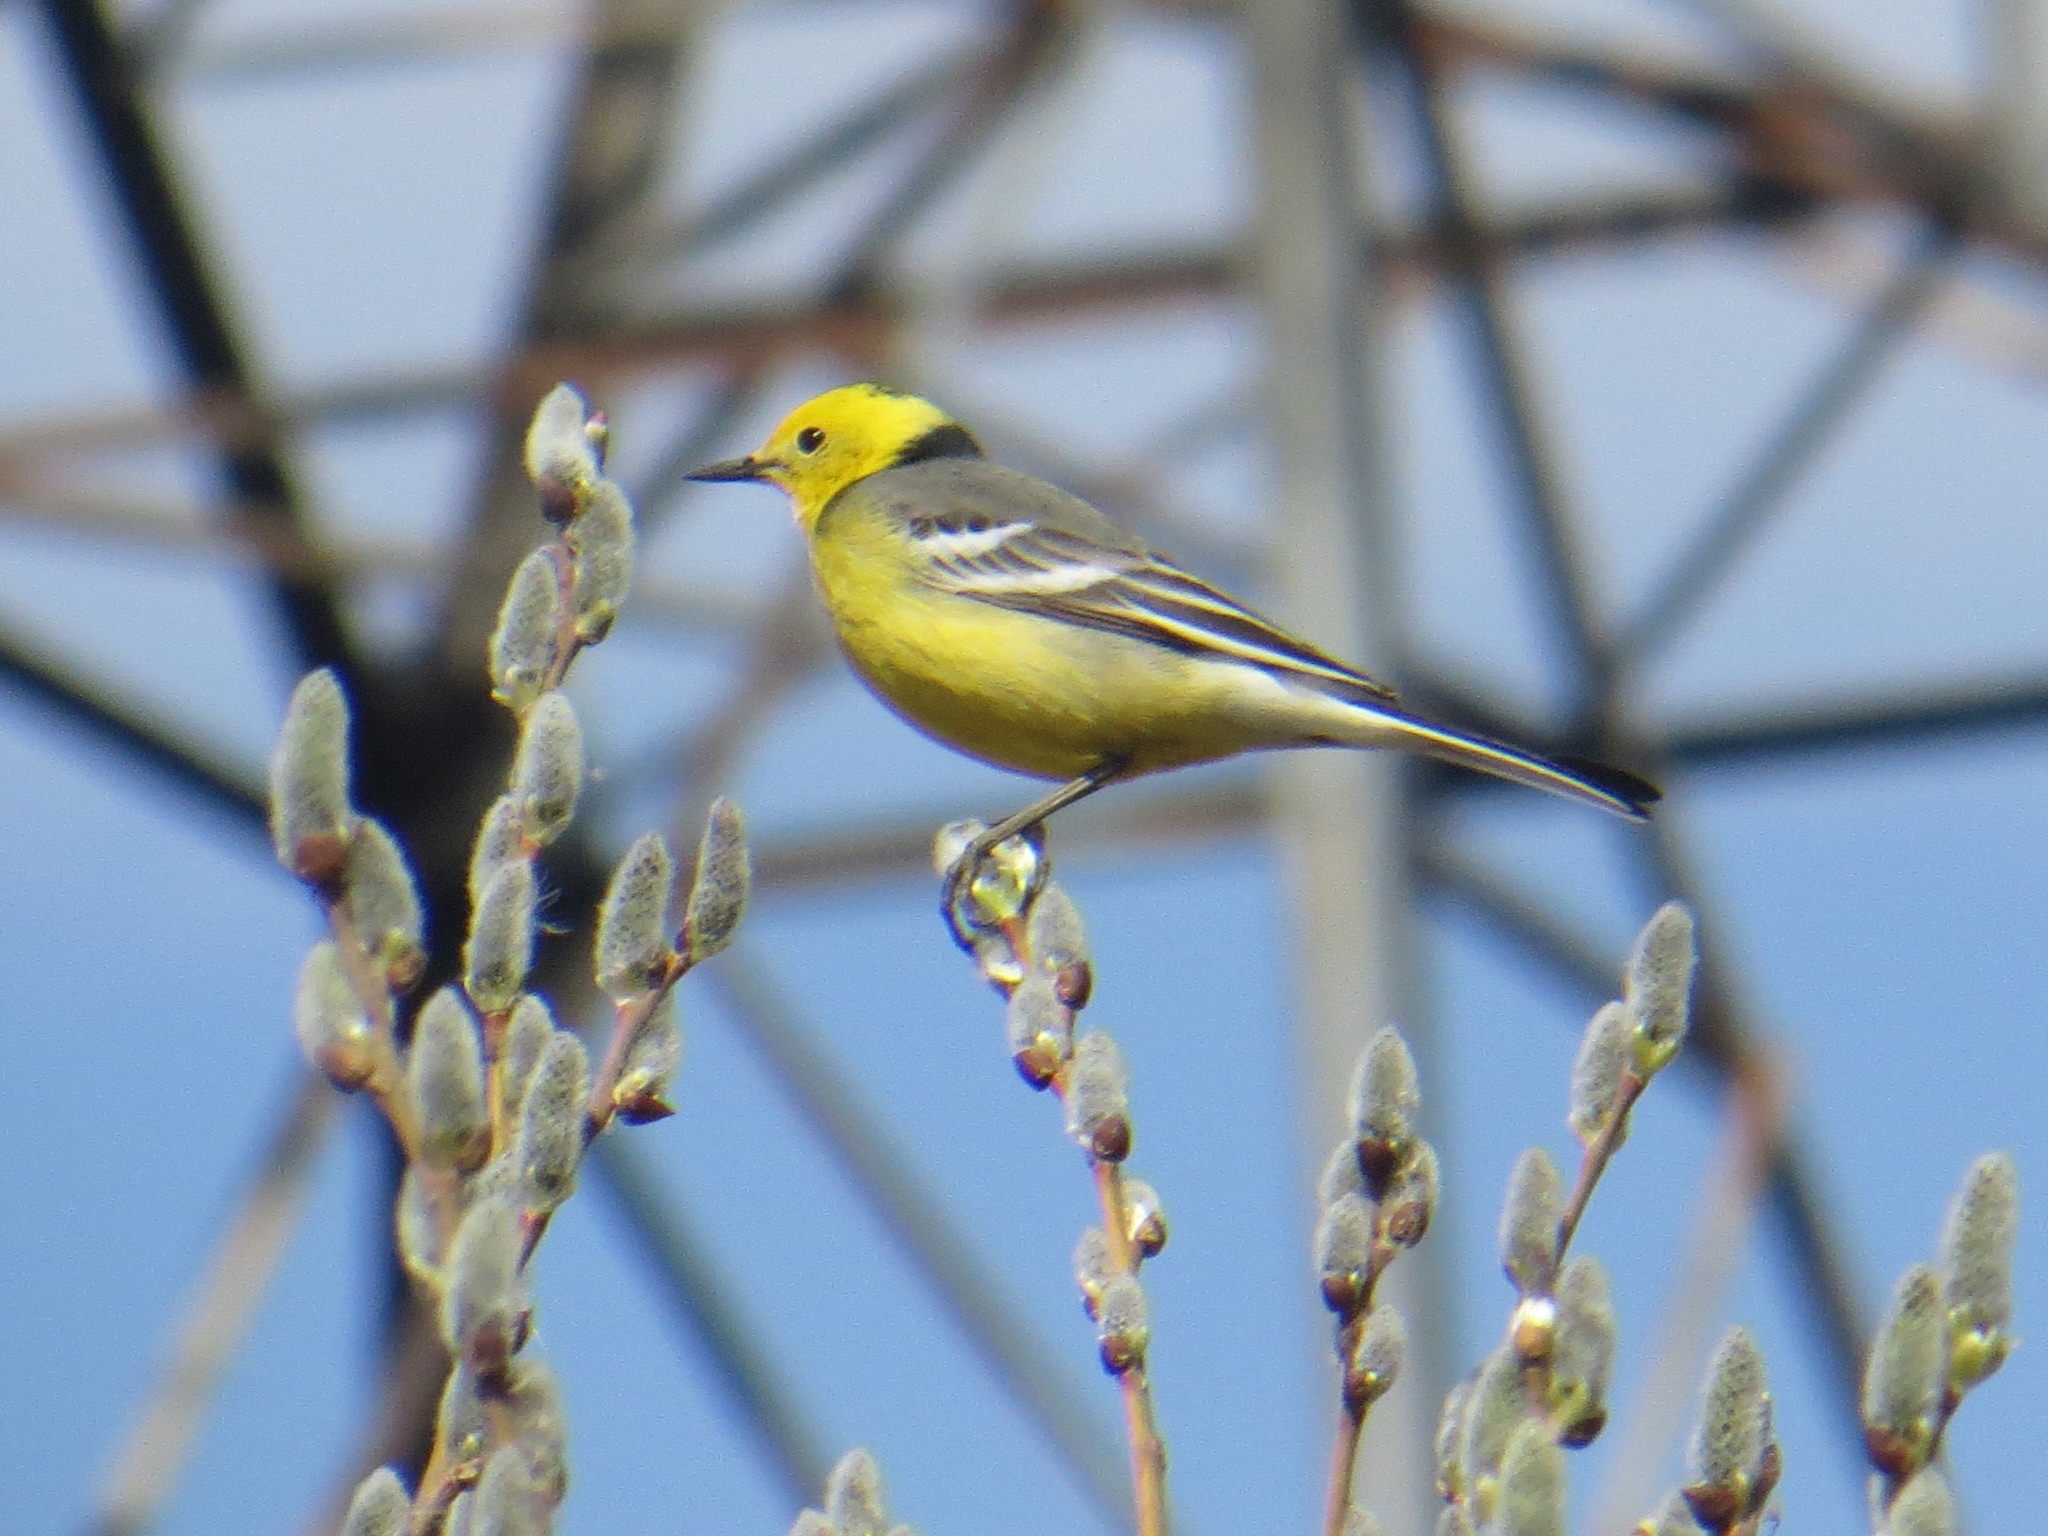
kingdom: Animalia
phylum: Chordata
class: Aves
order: Passeriformes
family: Motacillidae
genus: Motacilla
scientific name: Motacilla citreola
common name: Citrine wagtail
